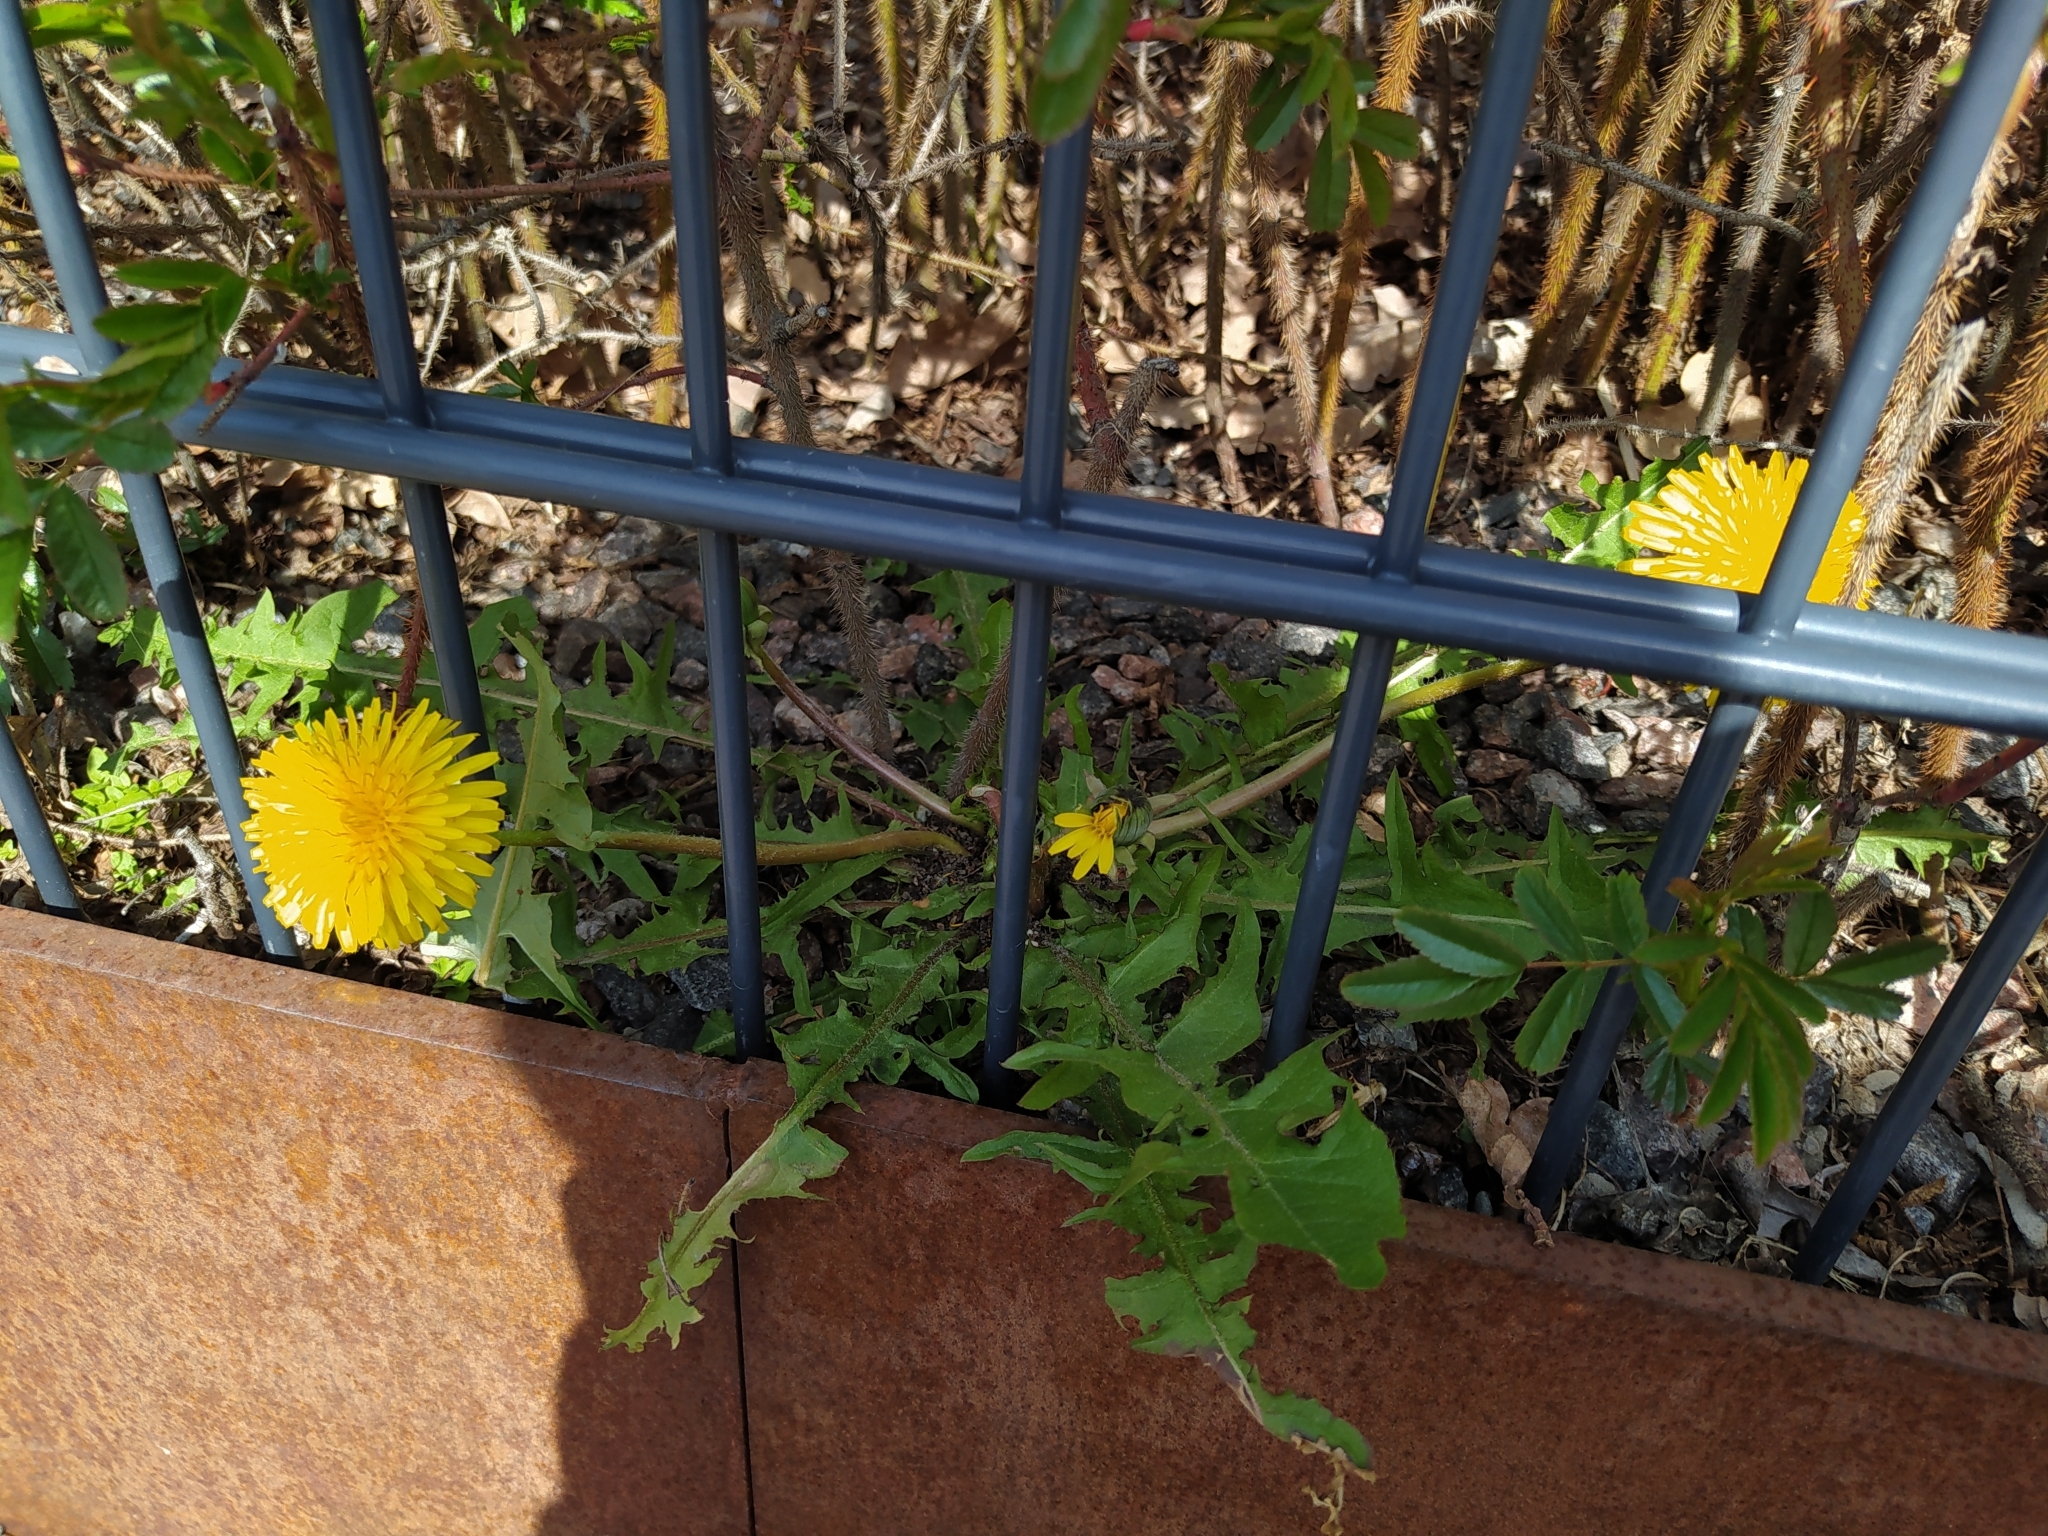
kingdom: Plantae
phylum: Tracheophyta
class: Magnoliopsida
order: Asterales
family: Asteraceae
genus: Taraxacum
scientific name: Taraxacum officinale
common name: Common dandelion
